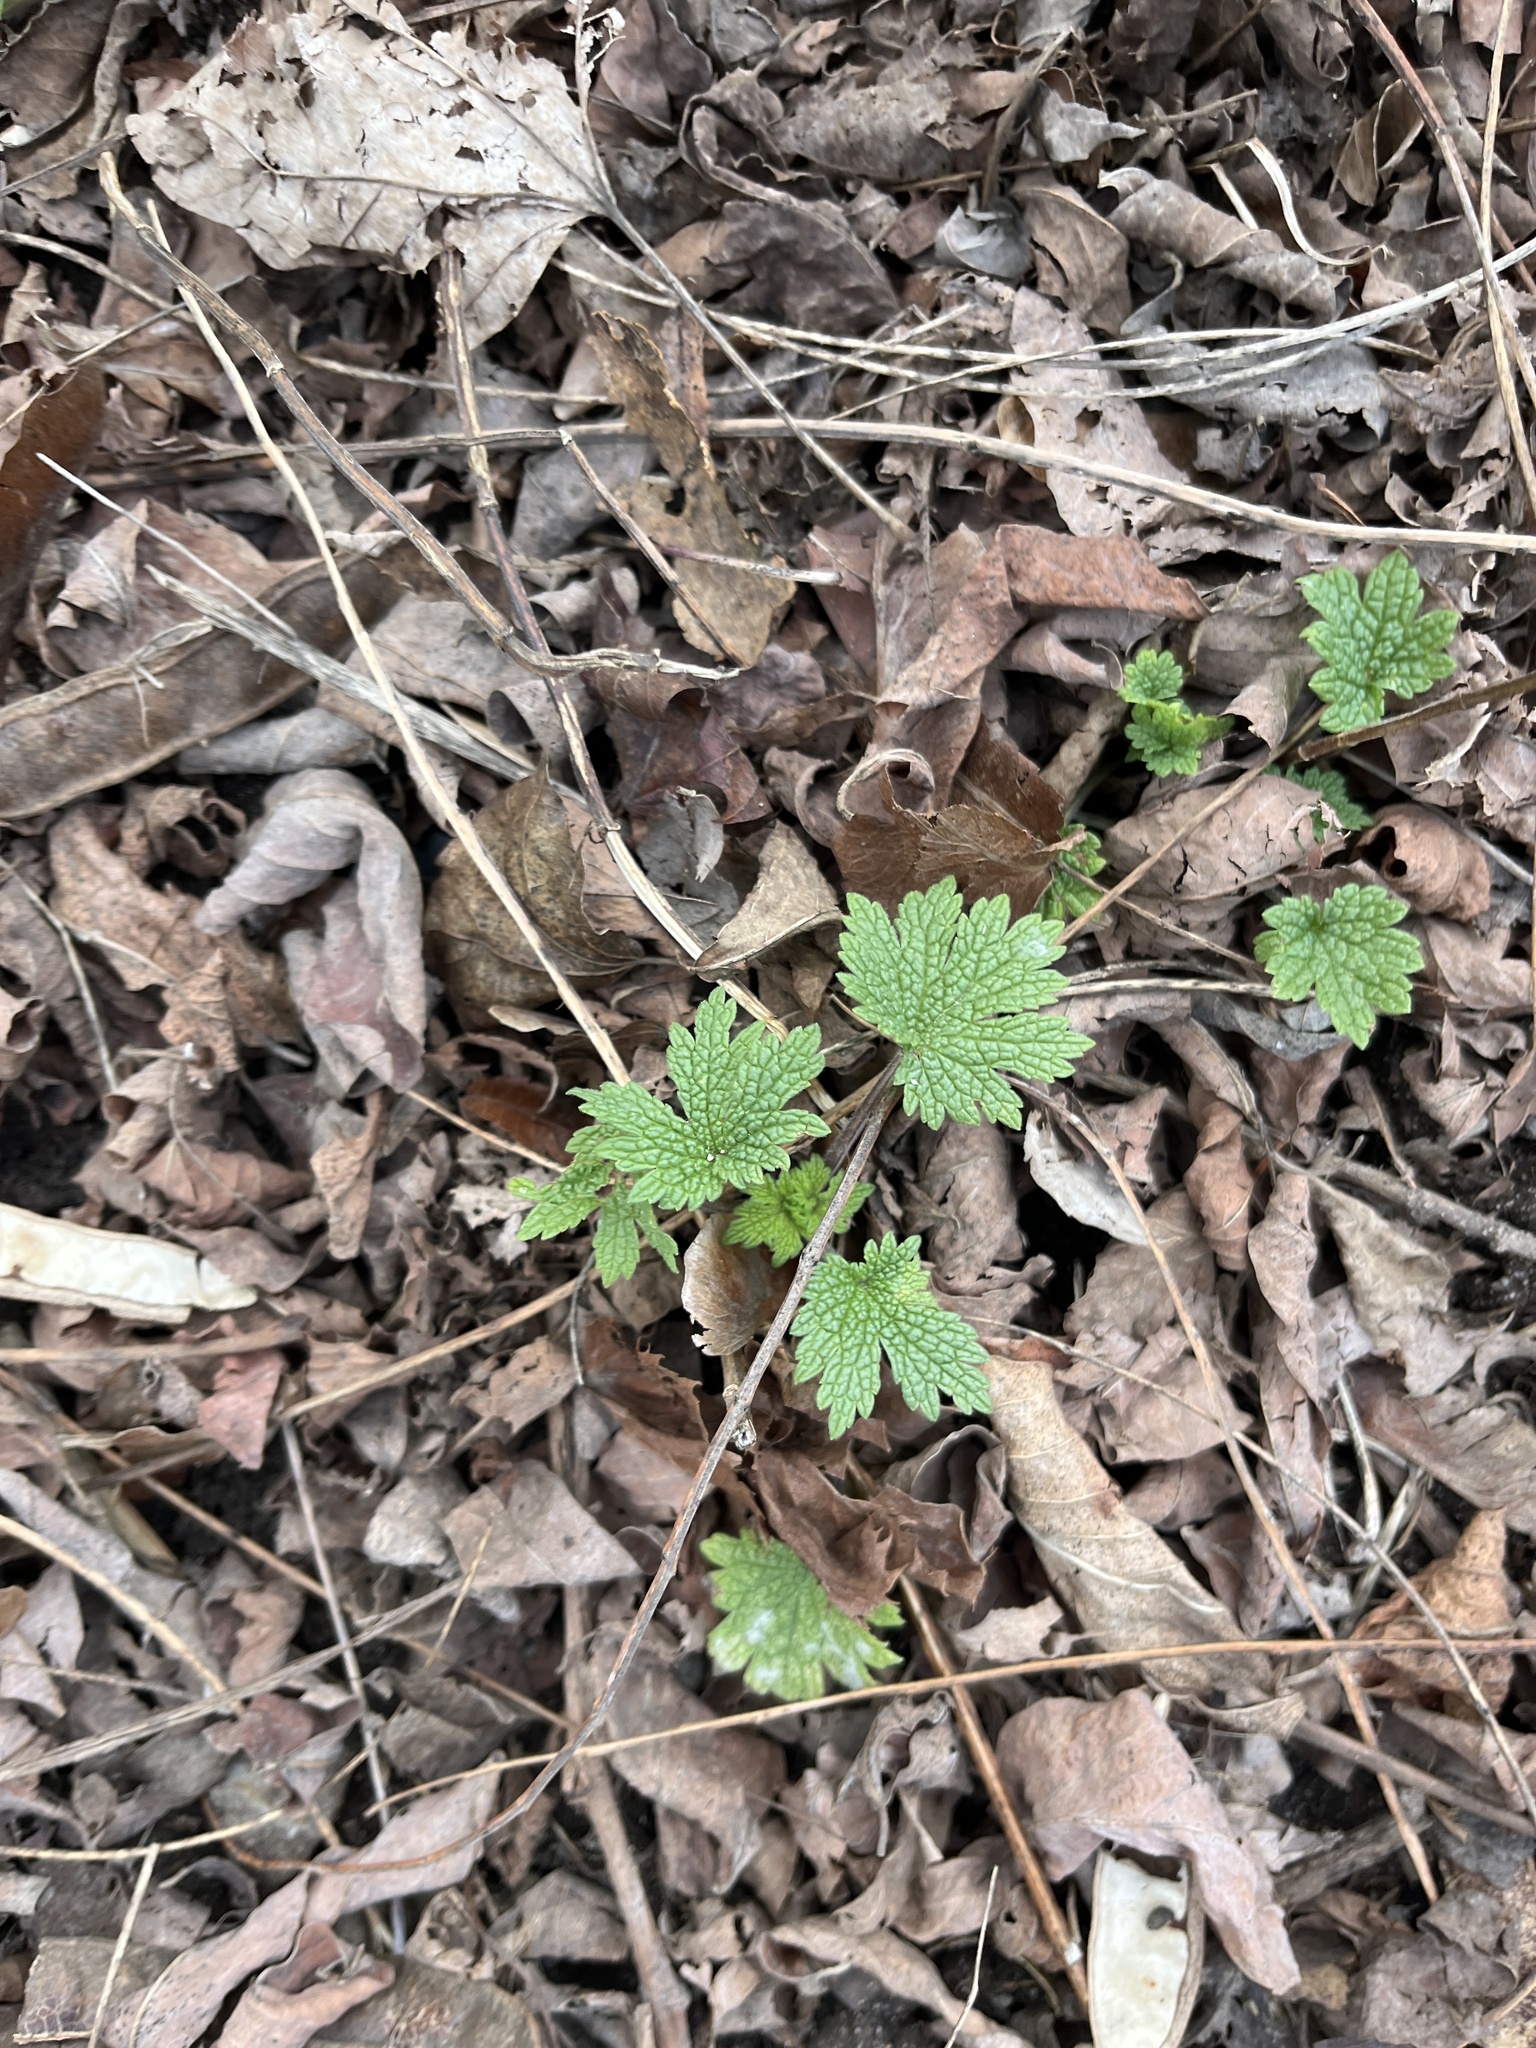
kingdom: Plantae
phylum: Tracheophyta
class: Magnoliopsida
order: Lamiales
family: Lamiaceae
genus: Leonurus
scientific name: Leonurus cardiaca
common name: Motherwort
